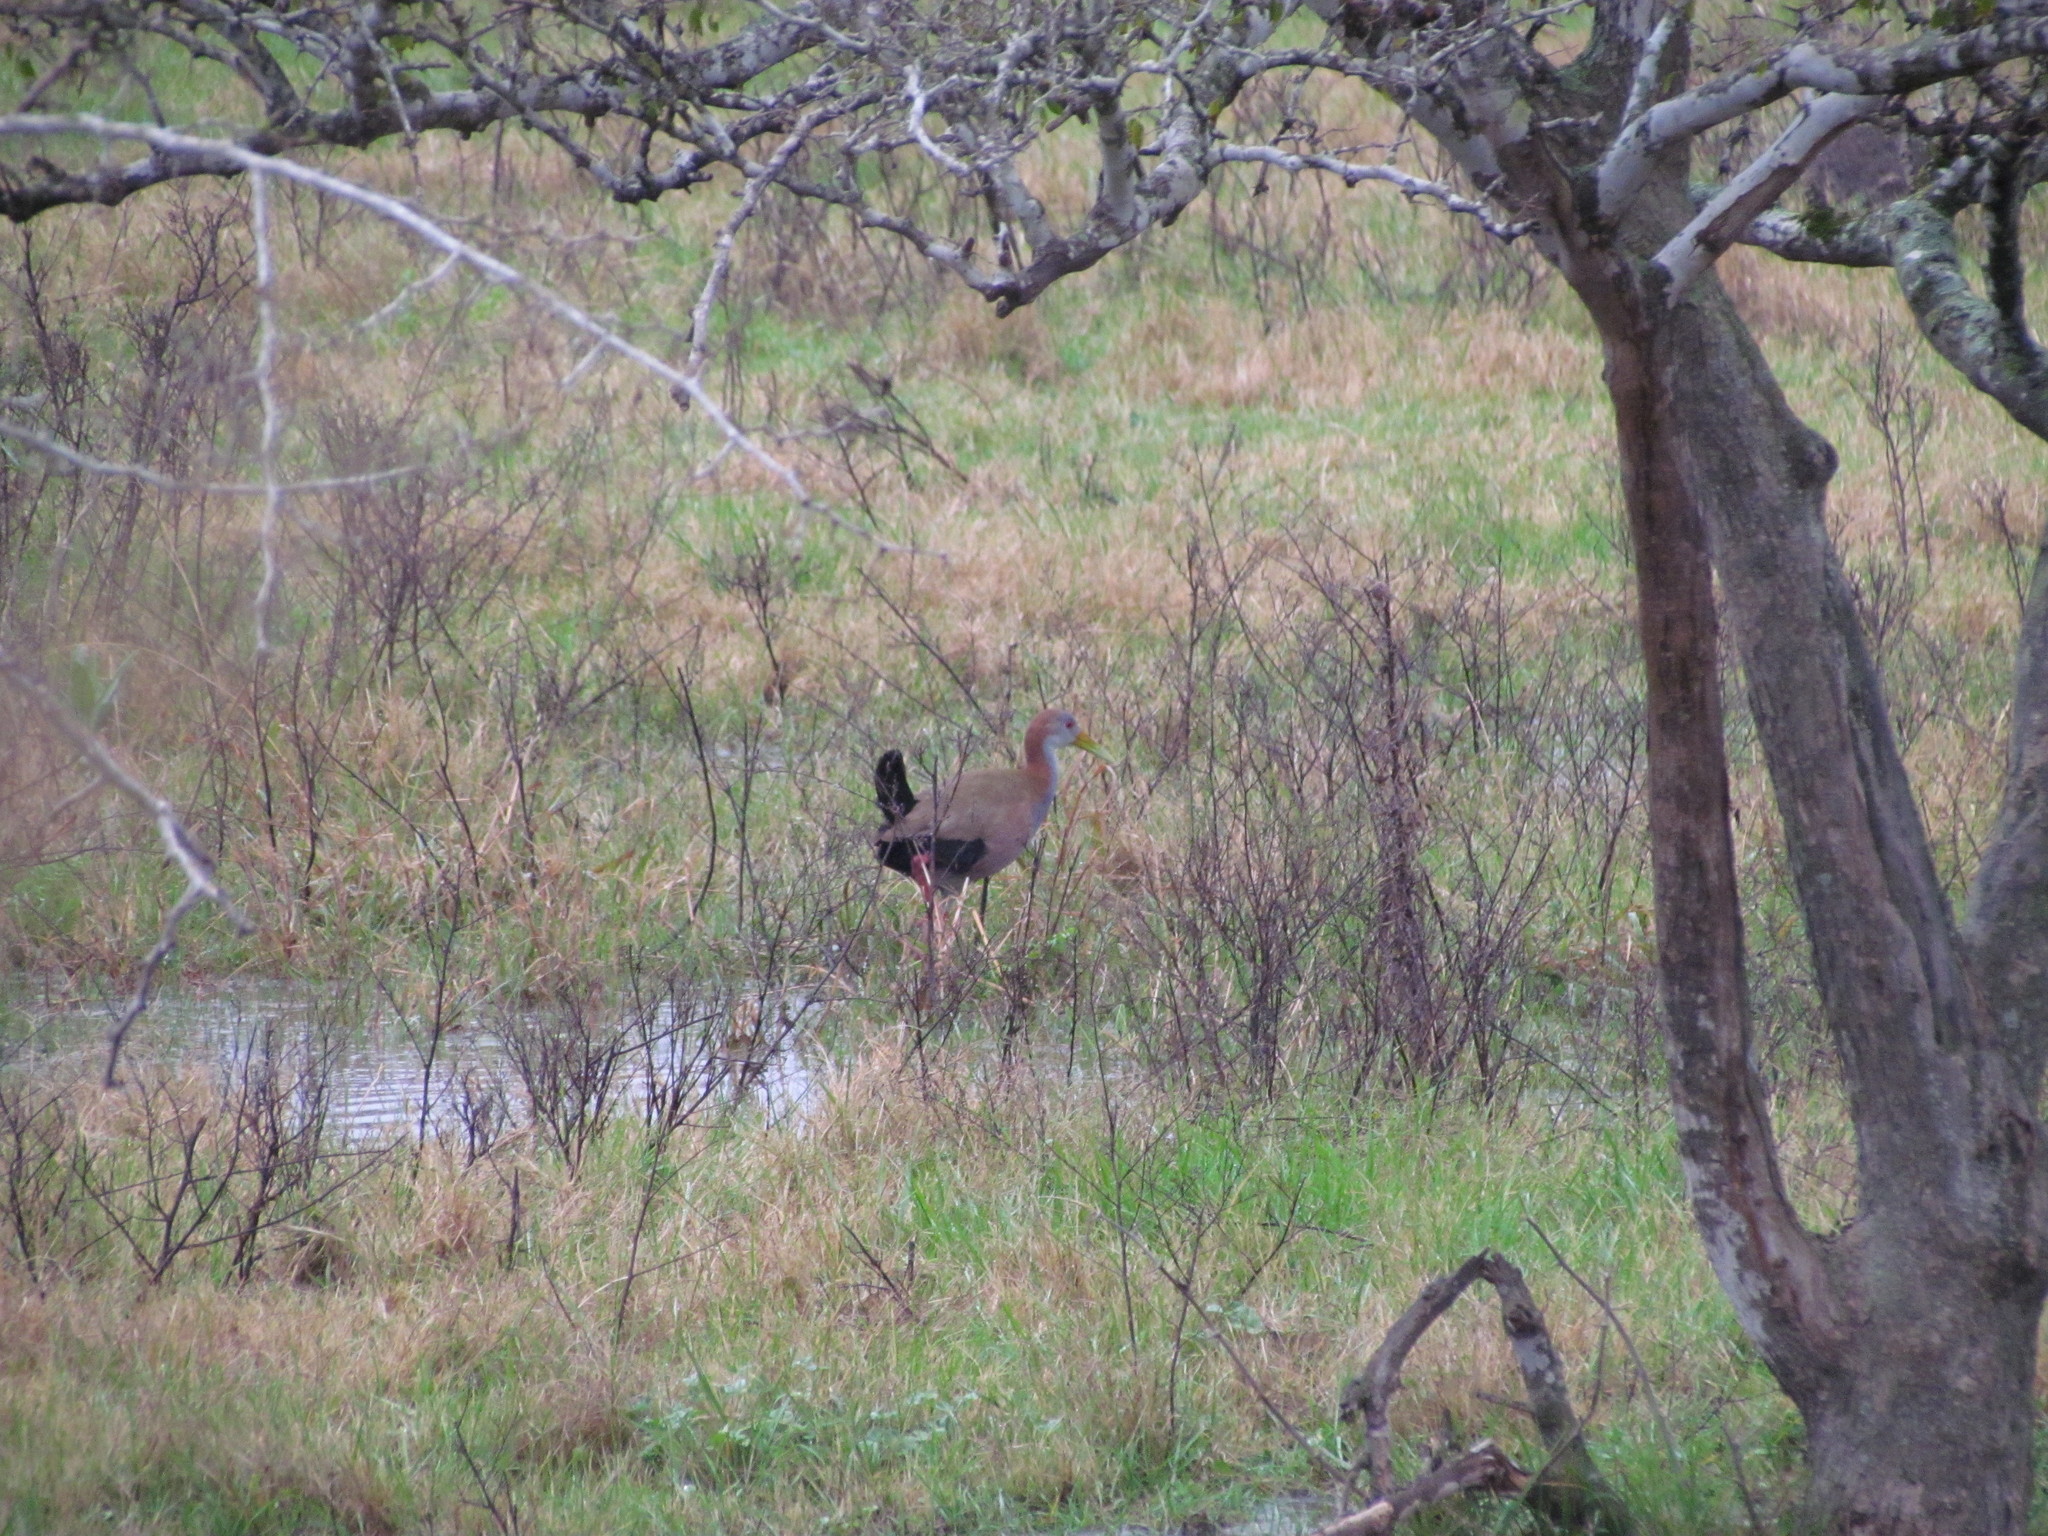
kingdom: Animalia
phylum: Chordata
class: Aves
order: Gruiformes
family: Rallidae
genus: Aramides
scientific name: Aramides ypecaha
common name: Giant wood rail
